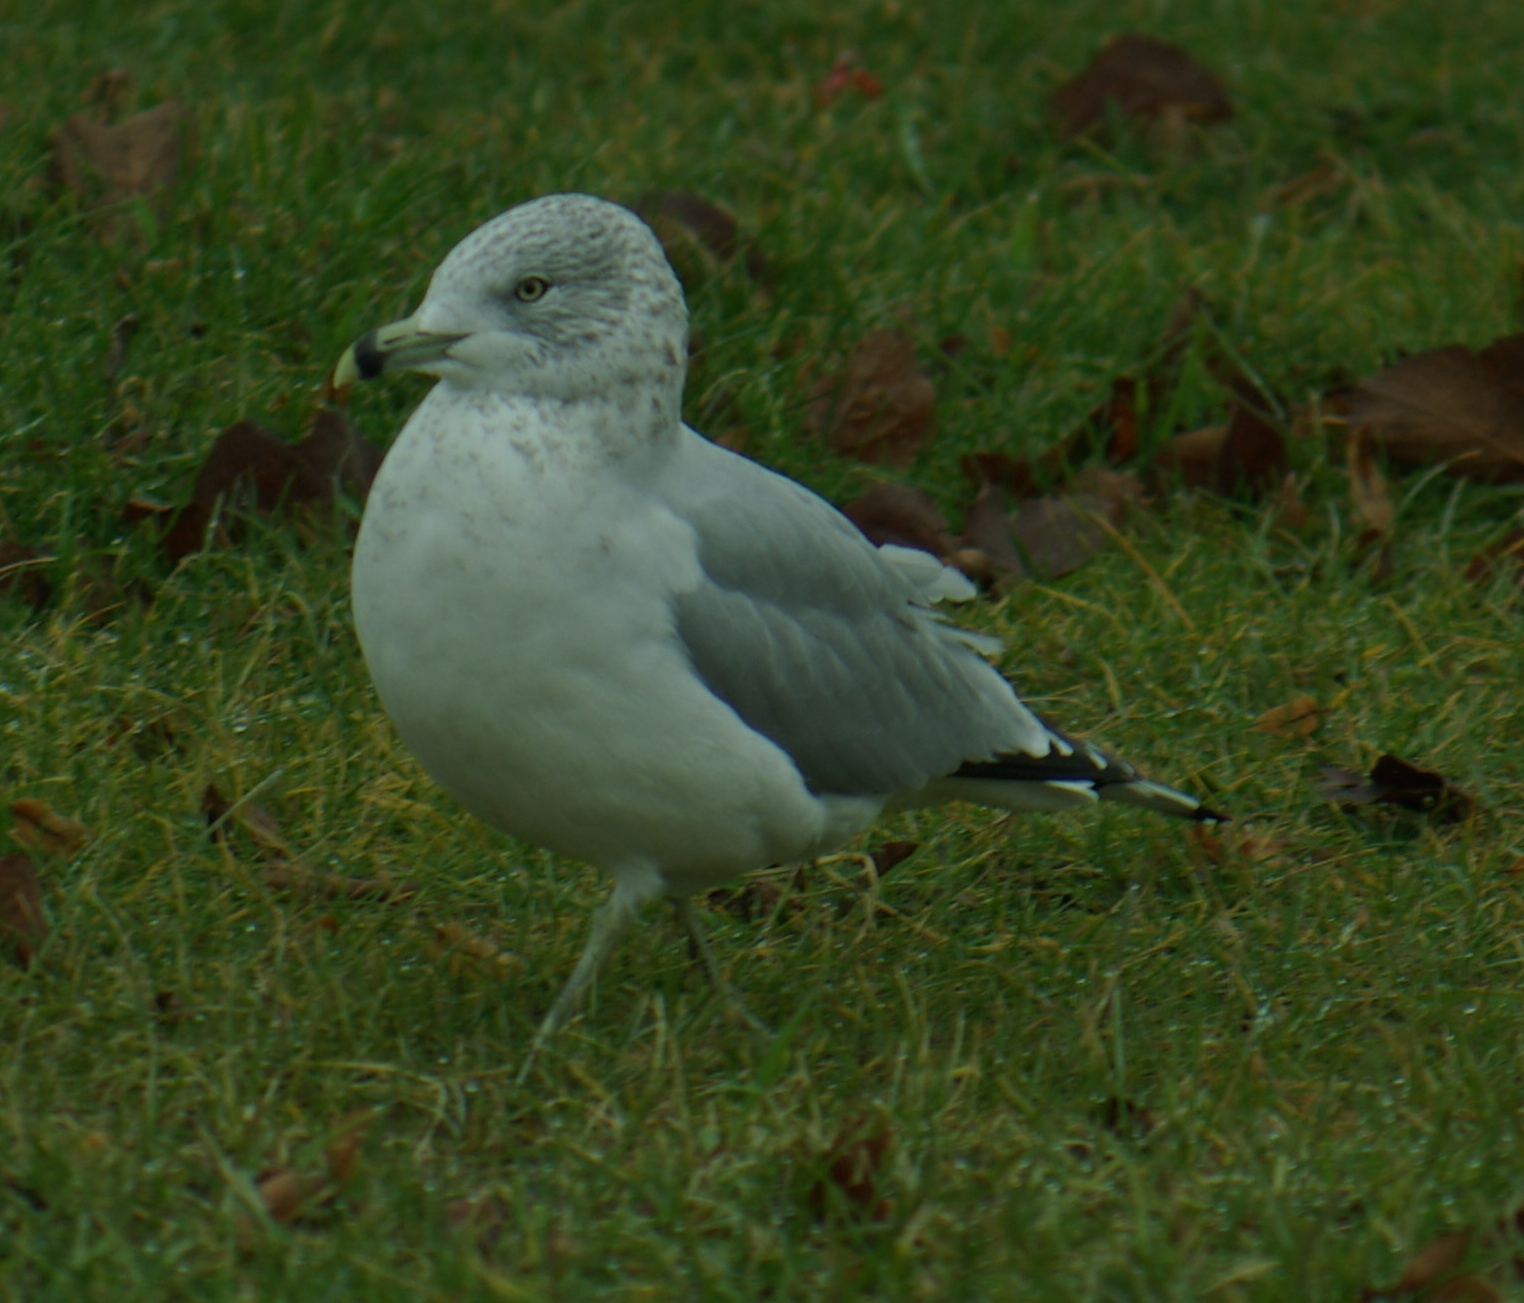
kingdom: Animalia
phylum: Chordata
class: Aves
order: Charadriiformes
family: Laridae
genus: Larus
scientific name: Larus delawarensis
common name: Ring-billed gull
